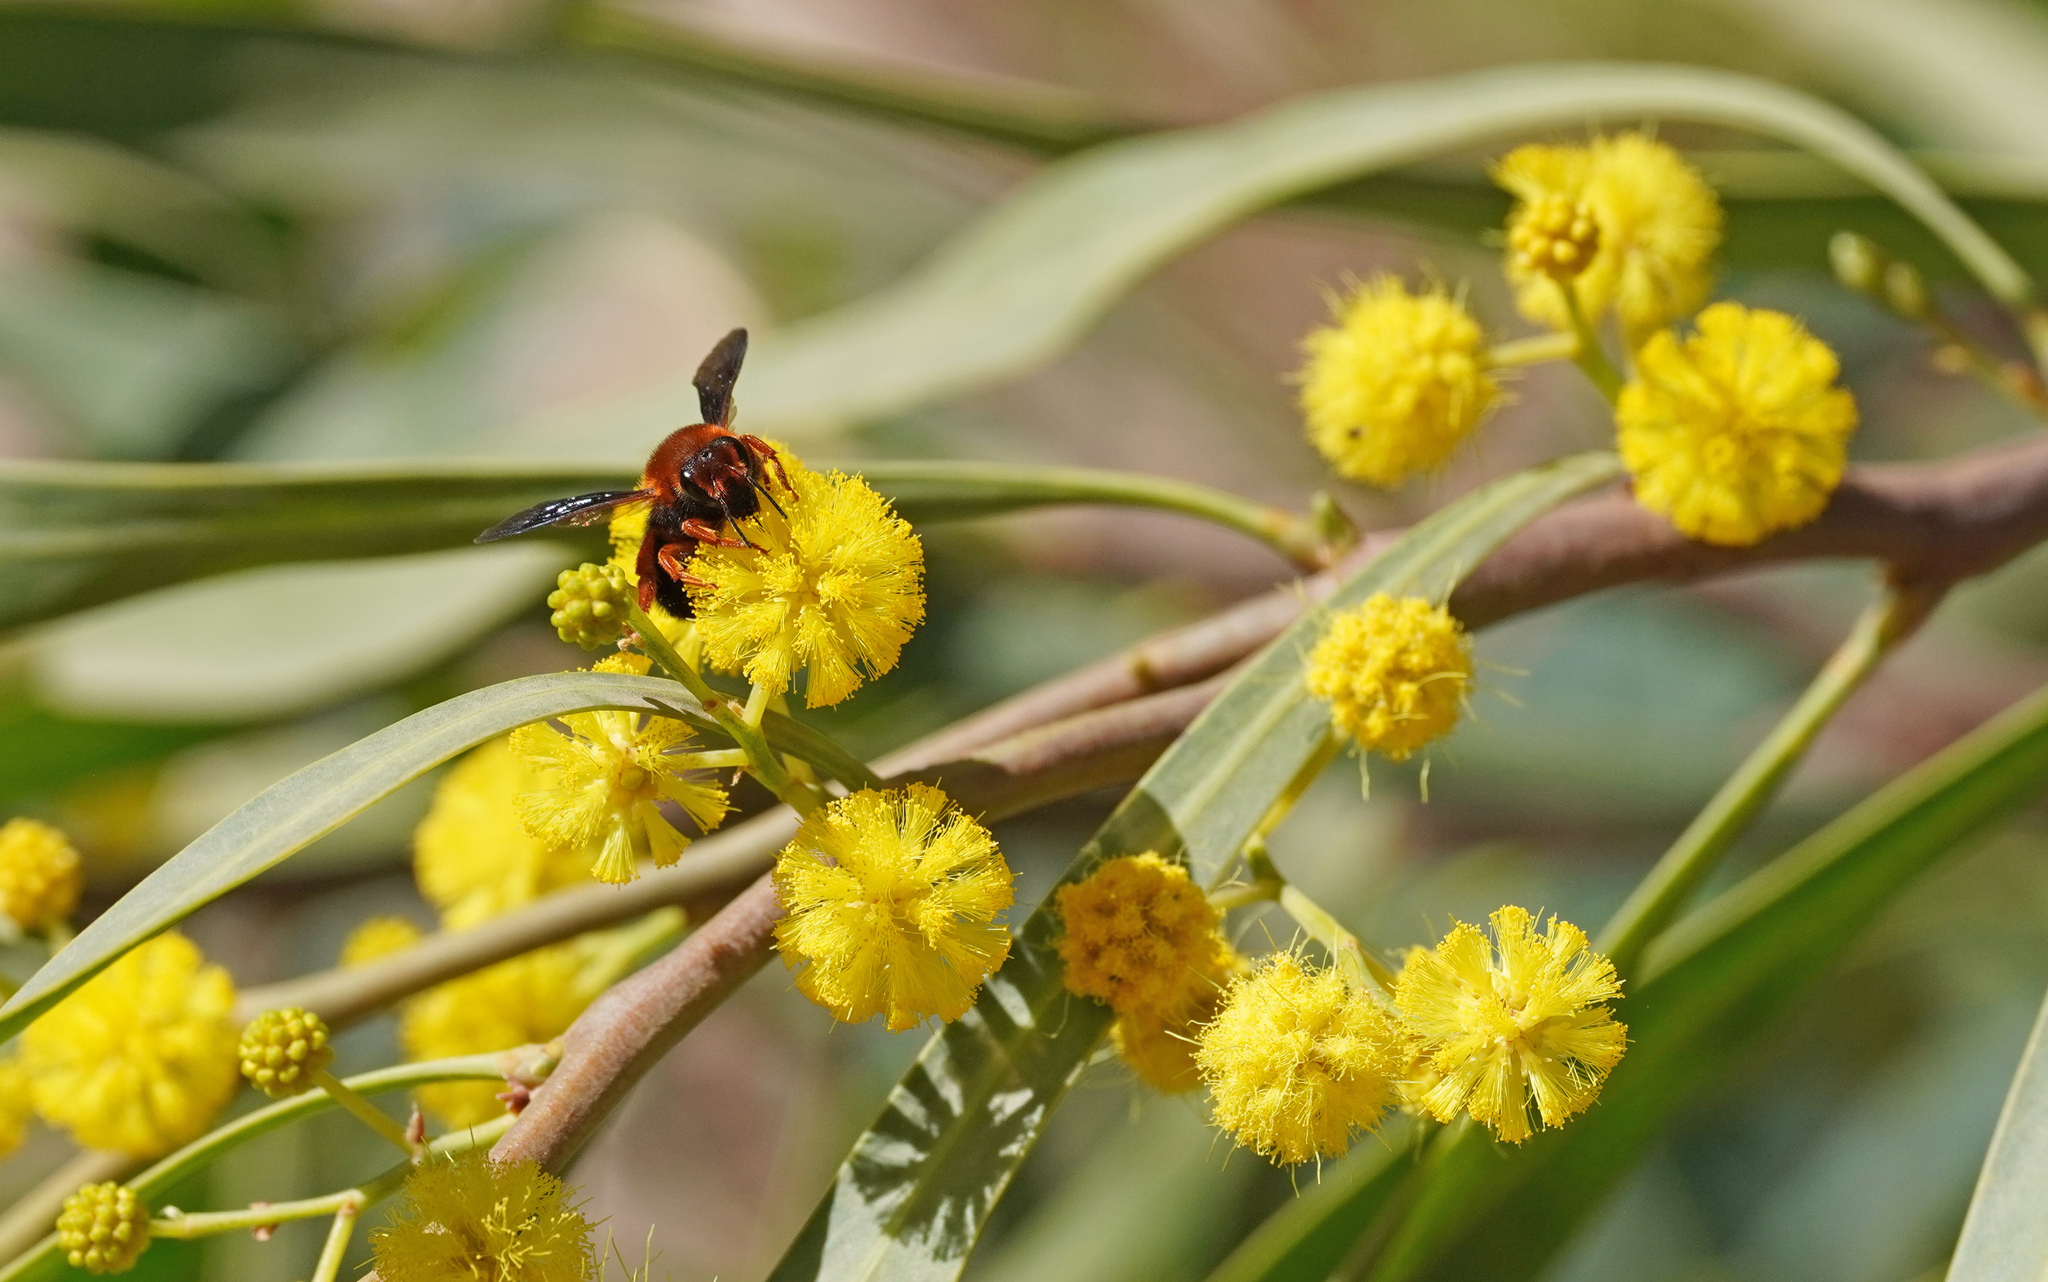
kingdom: Animalia
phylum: Arthropoda
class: Insecta
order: Hymenoptera
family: Megachilidae
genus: Megachile
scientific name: Megachile sicula
